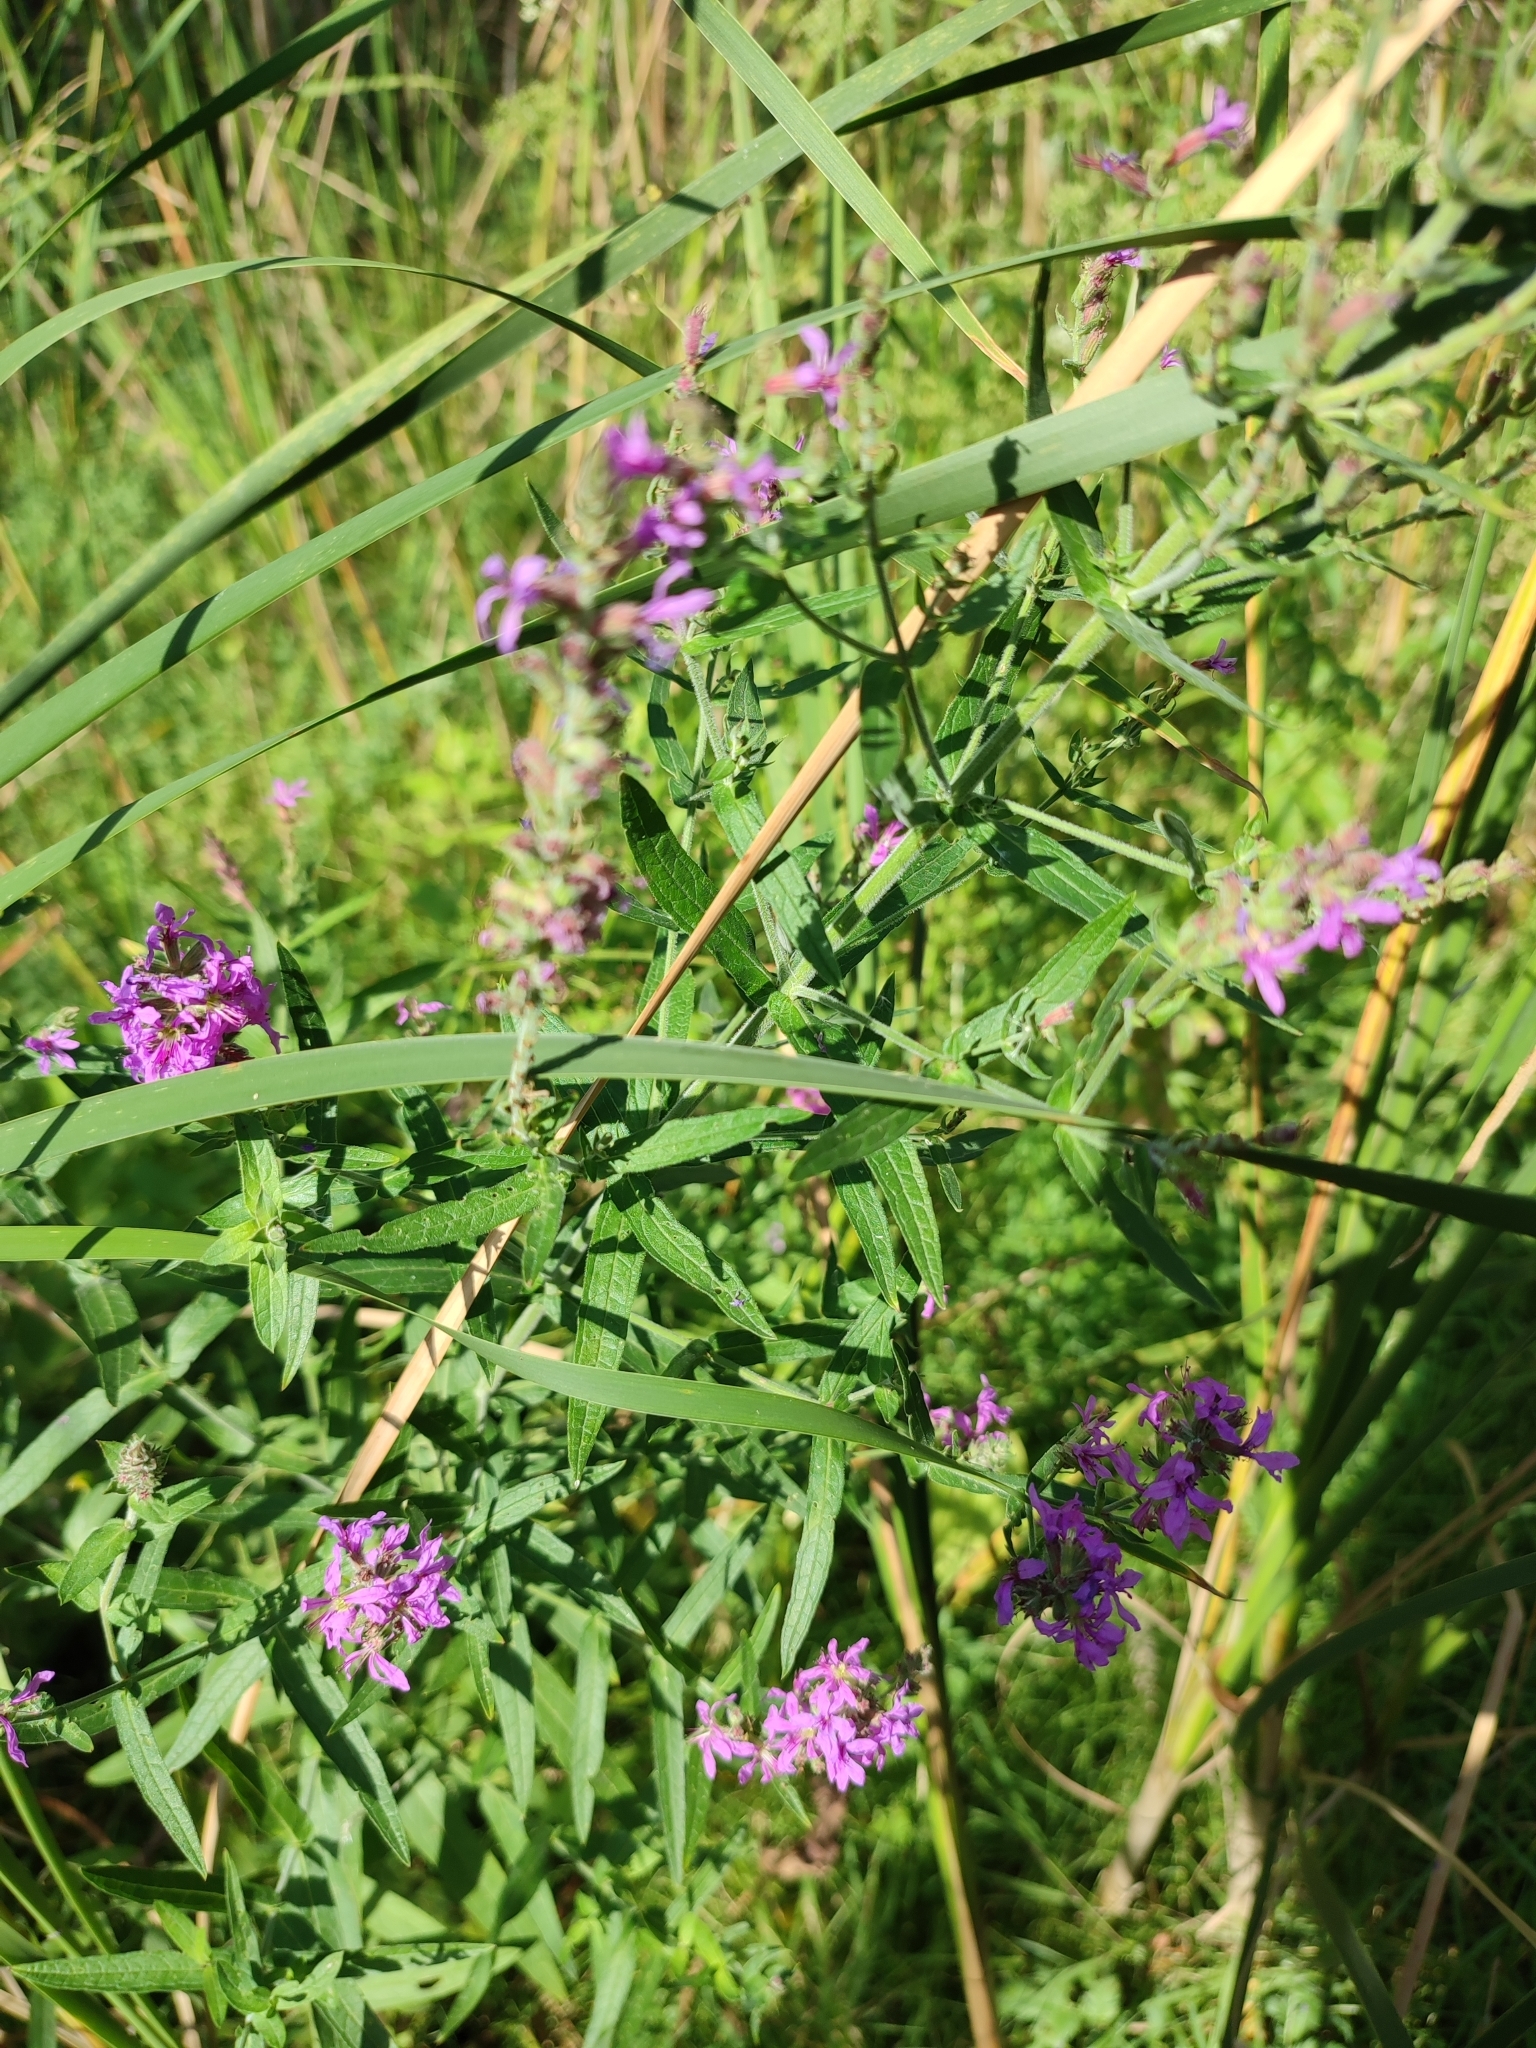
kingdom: Plantae
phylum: Tracheophyta
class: Magnoliopsida
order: Myrtales
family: Lythraceae
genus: Lythrum
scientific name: Lythrum salicaria
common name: Purple loosestrife
